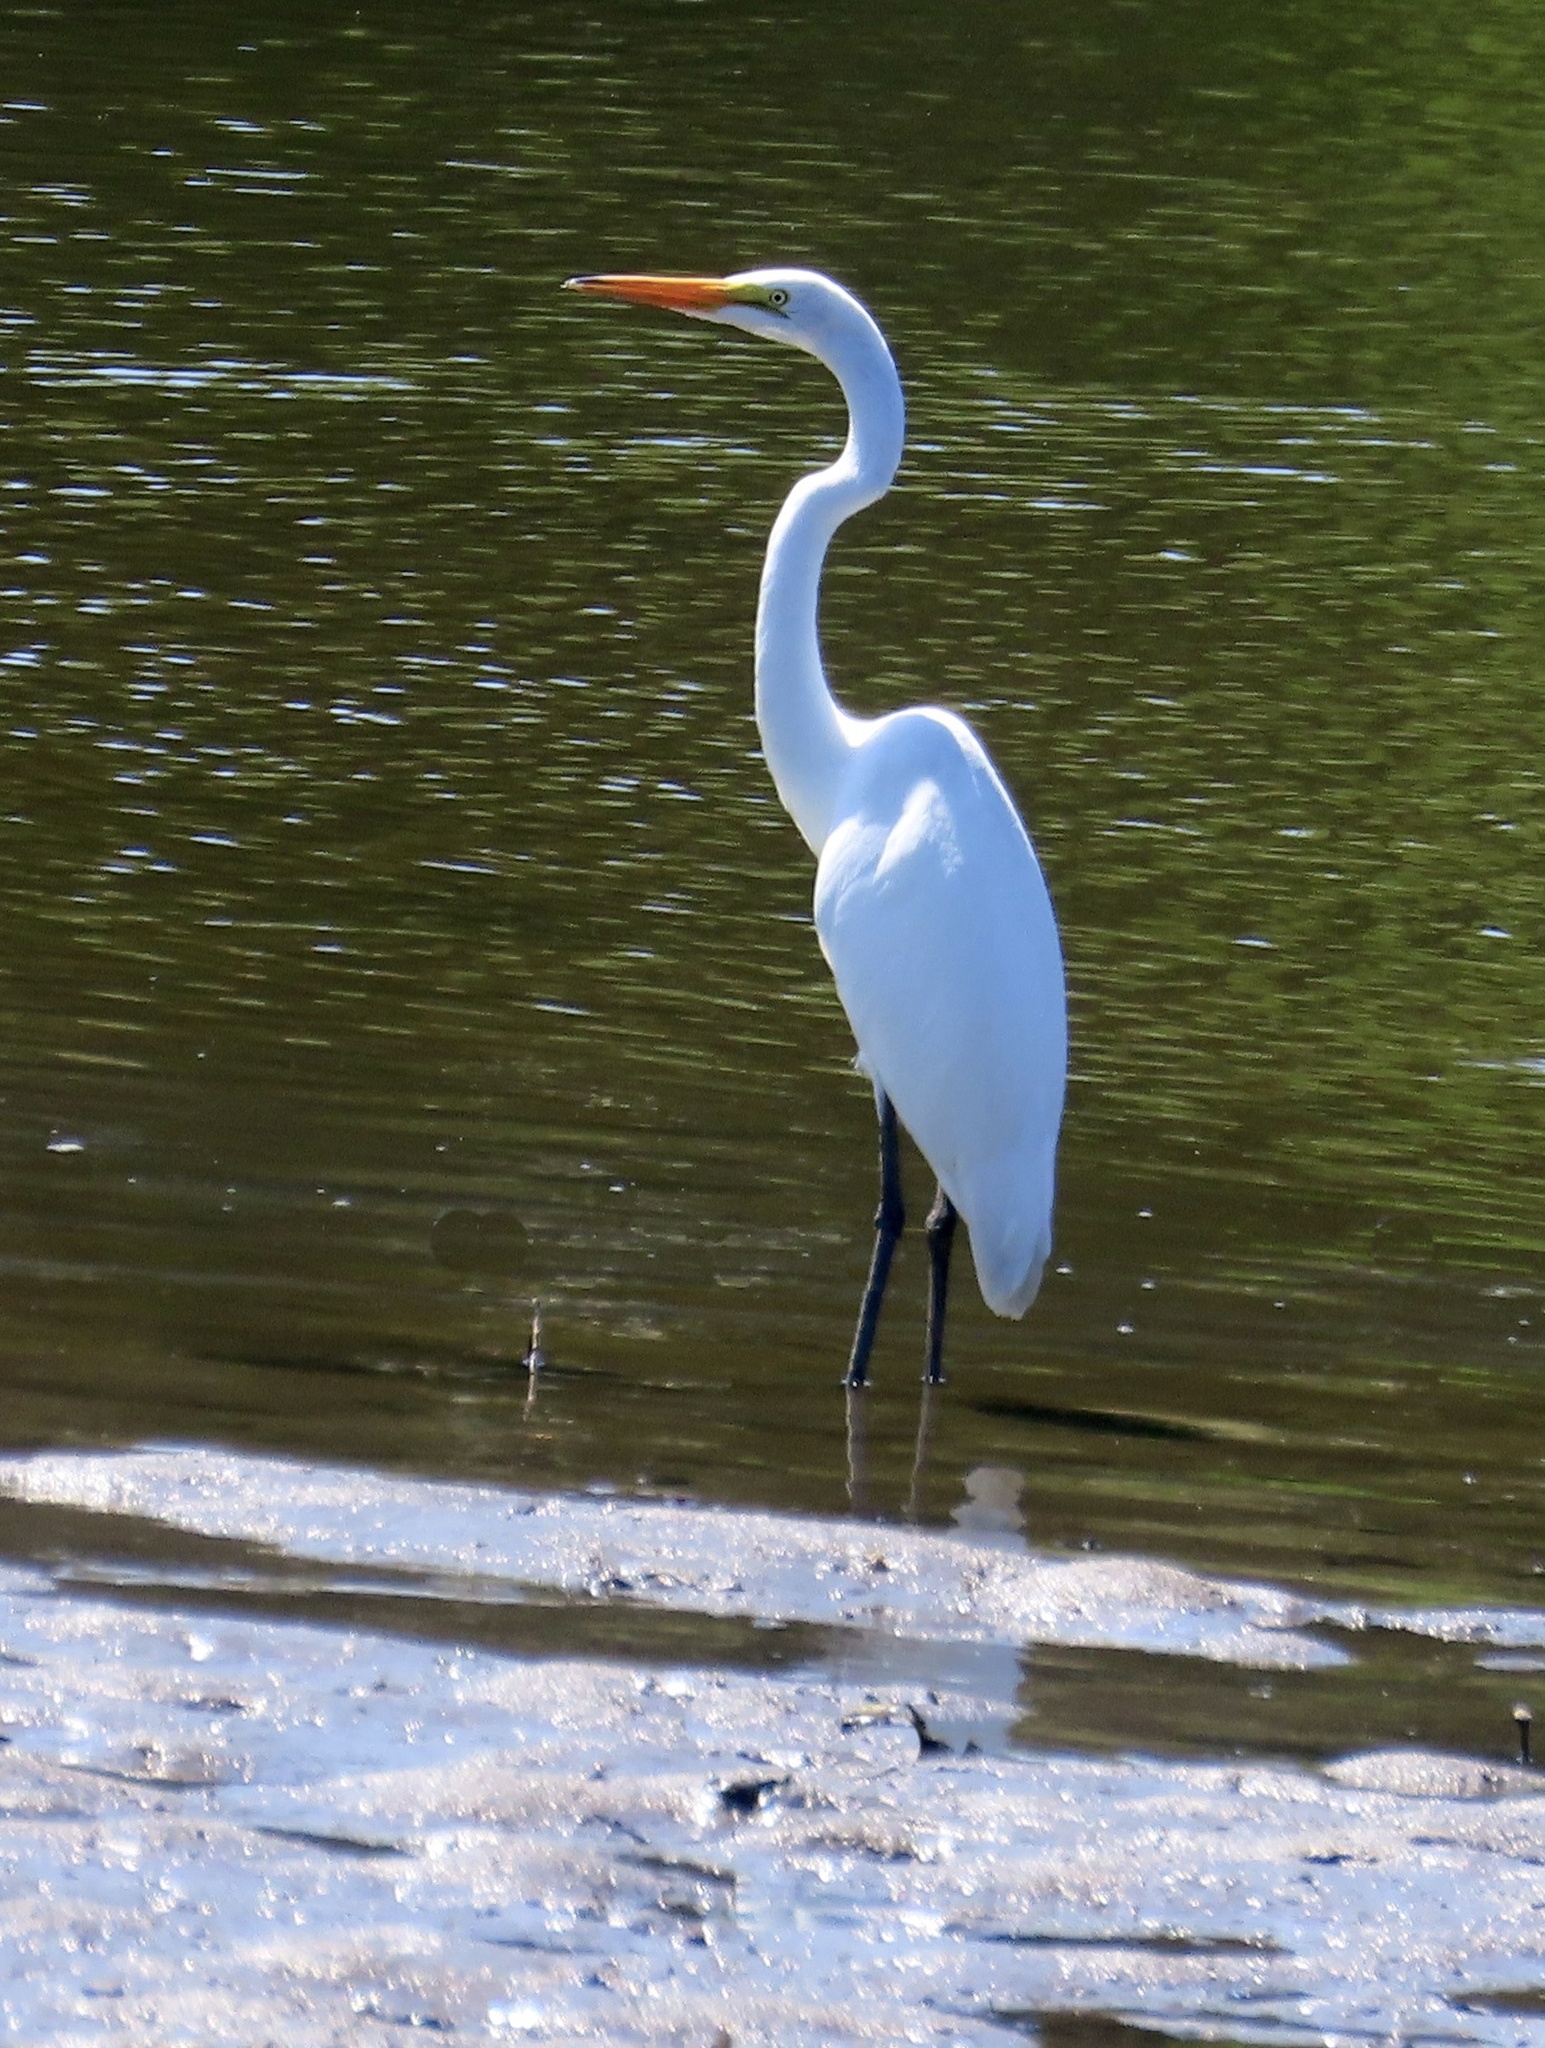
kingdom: Animalia
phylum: Chordata
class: Aves
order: Pelecaniformes
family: Ardeidae
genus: Ardea
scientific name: Ardea alba
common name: Great egret
